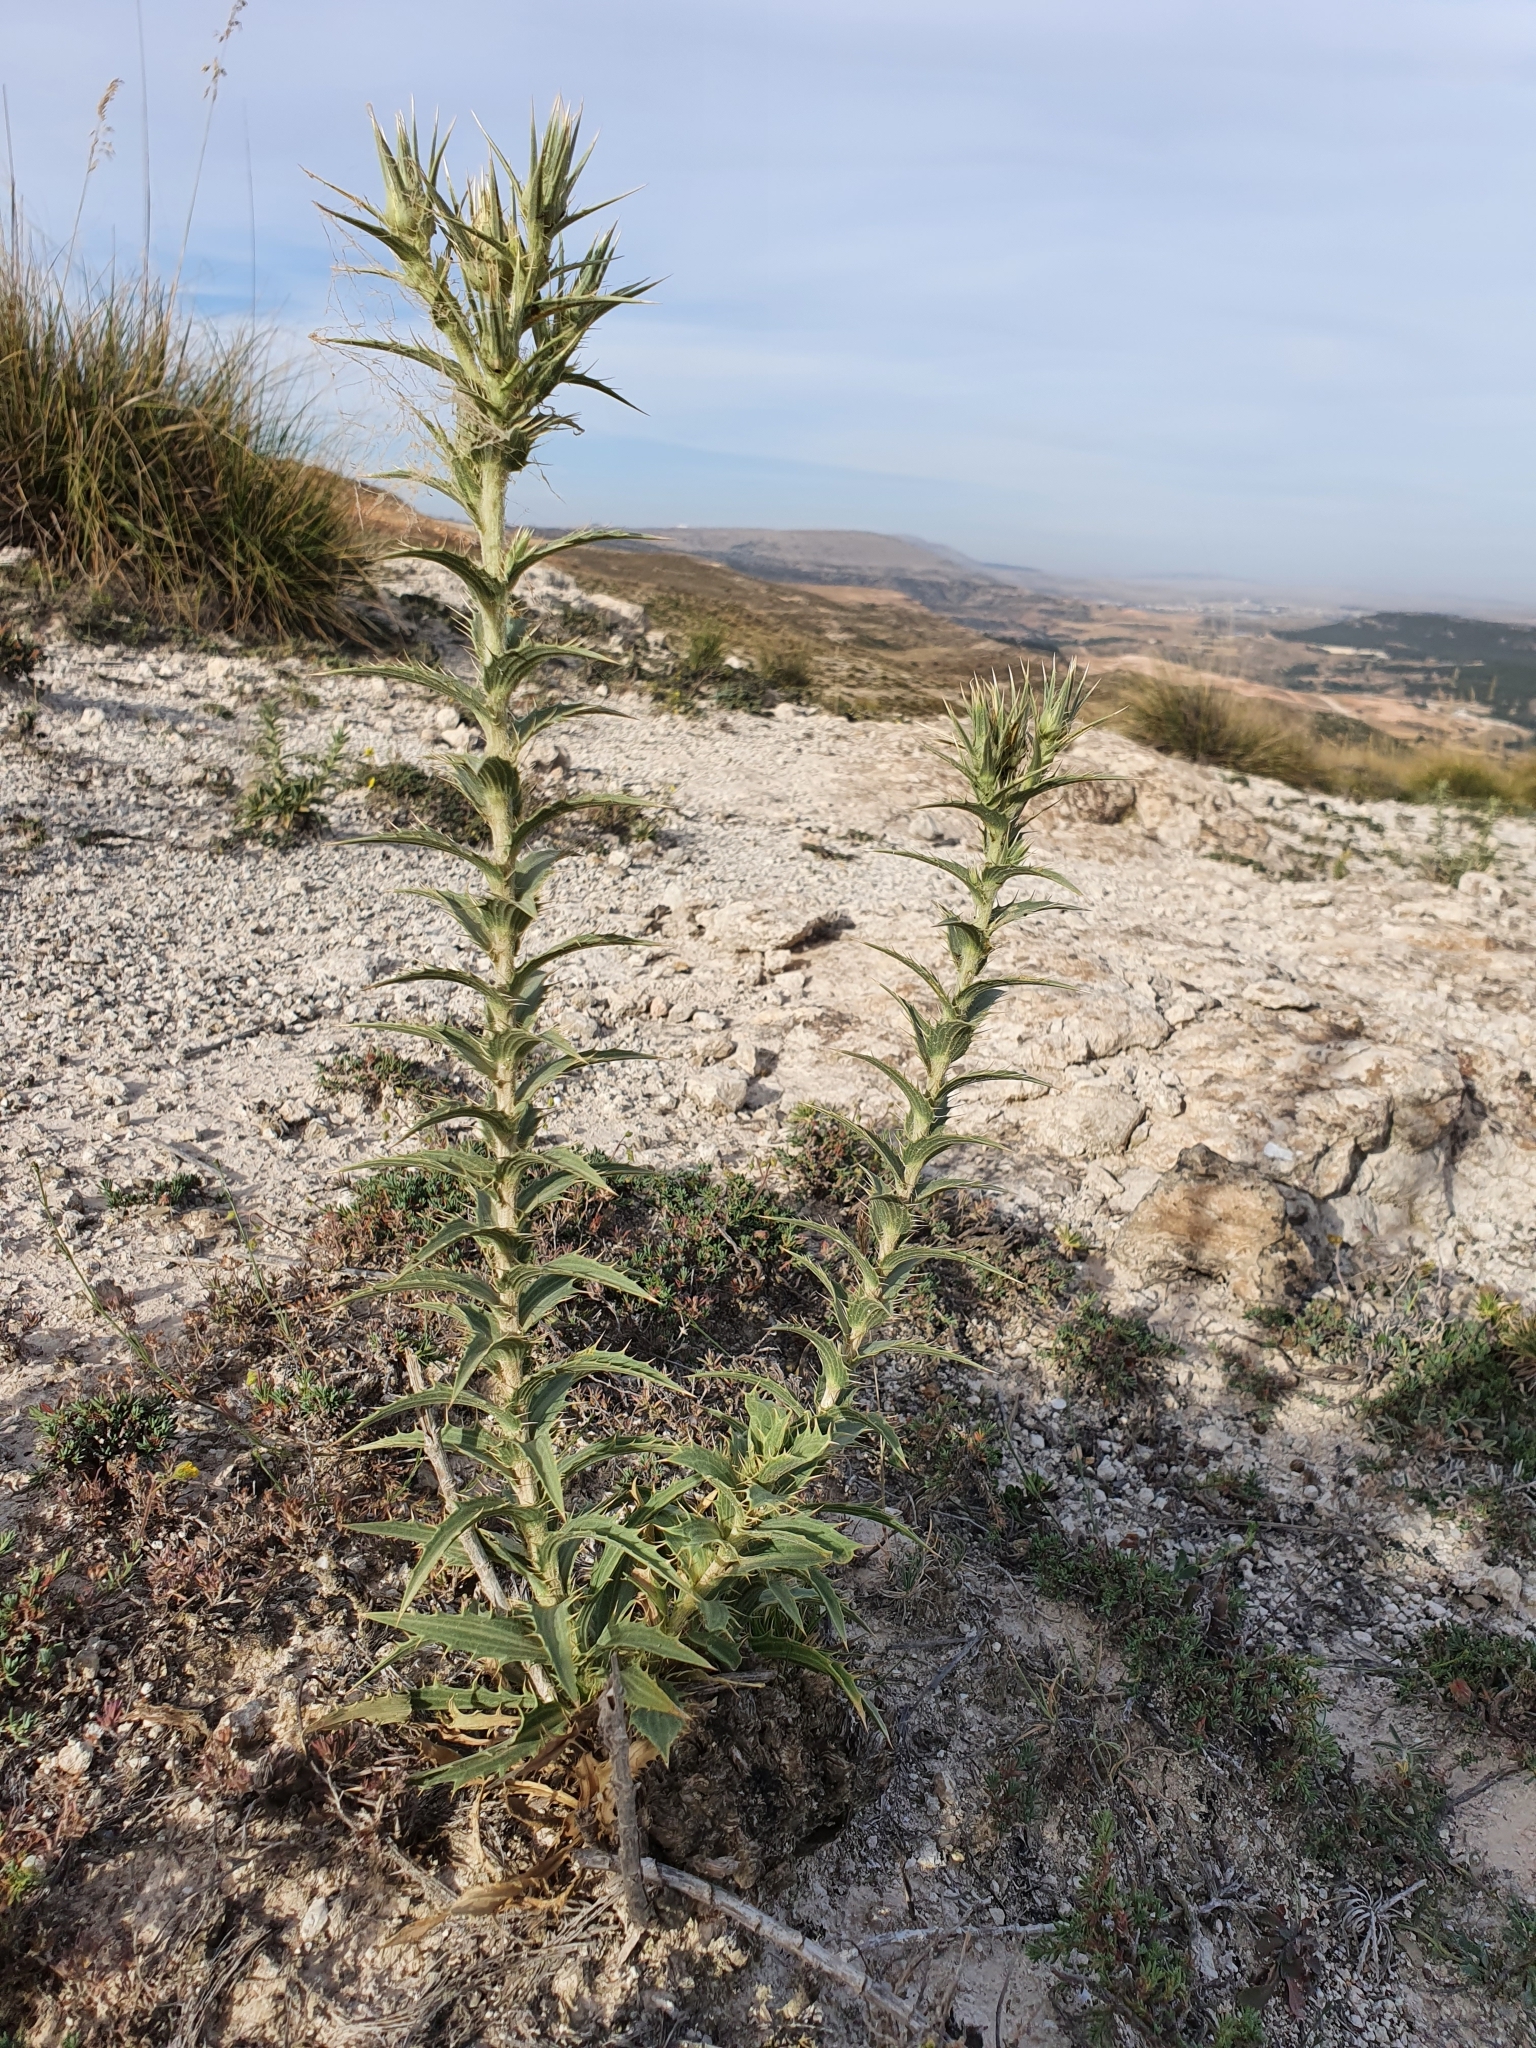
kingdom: Plantae
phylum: Tracheophyta
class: Magnoliopsida
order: Asterales
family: Asteraceae
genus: Carduncellus
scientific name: Carduncellus pectinatus
